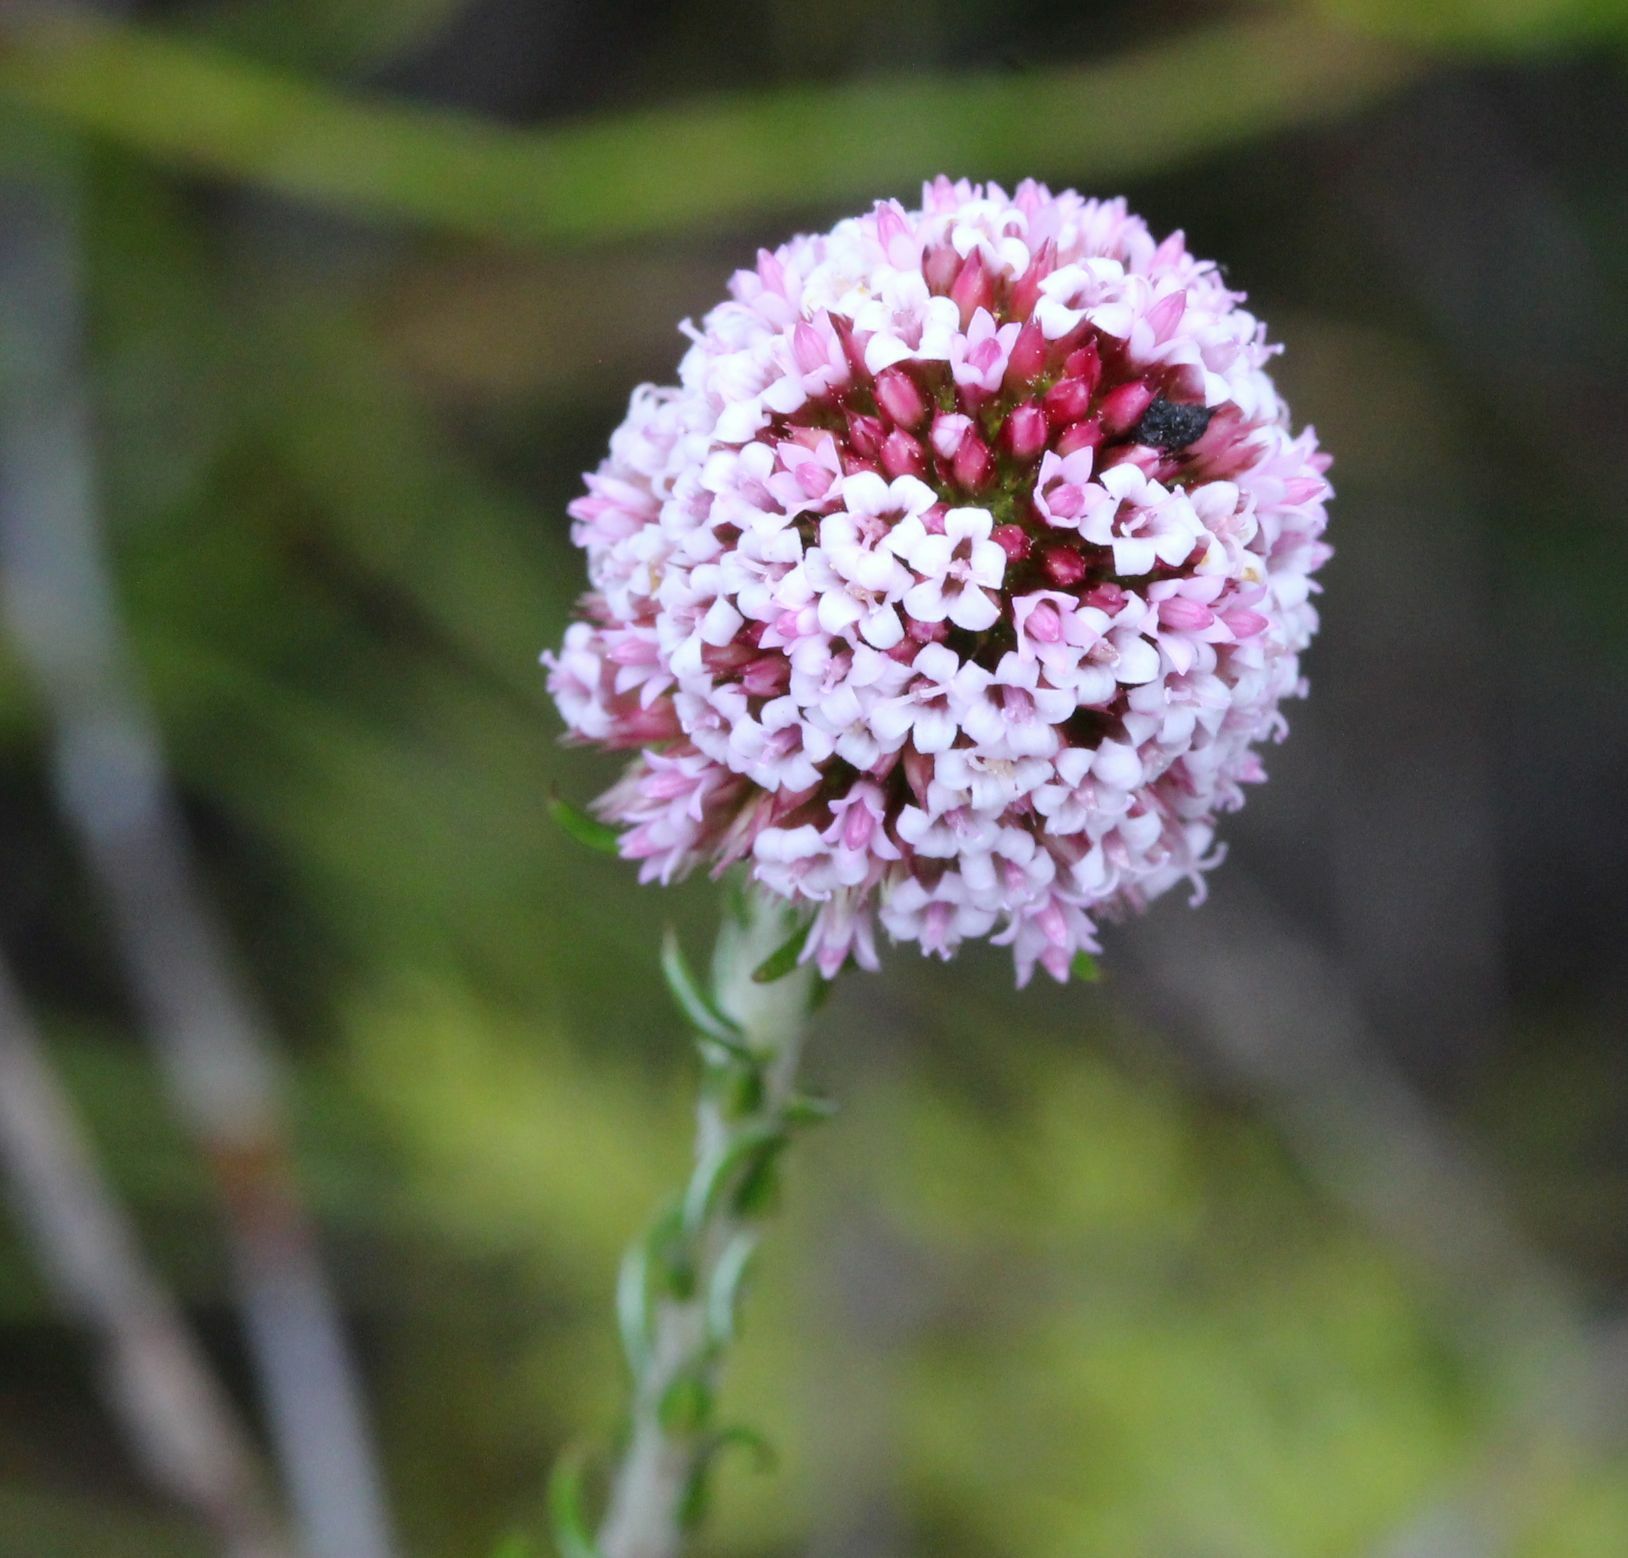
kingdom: Plantae
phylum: Tracheophyta
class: Magnoliopsida
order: Asterales
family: Asteraceae
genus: Stoebe
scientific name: Stoebe capitata
